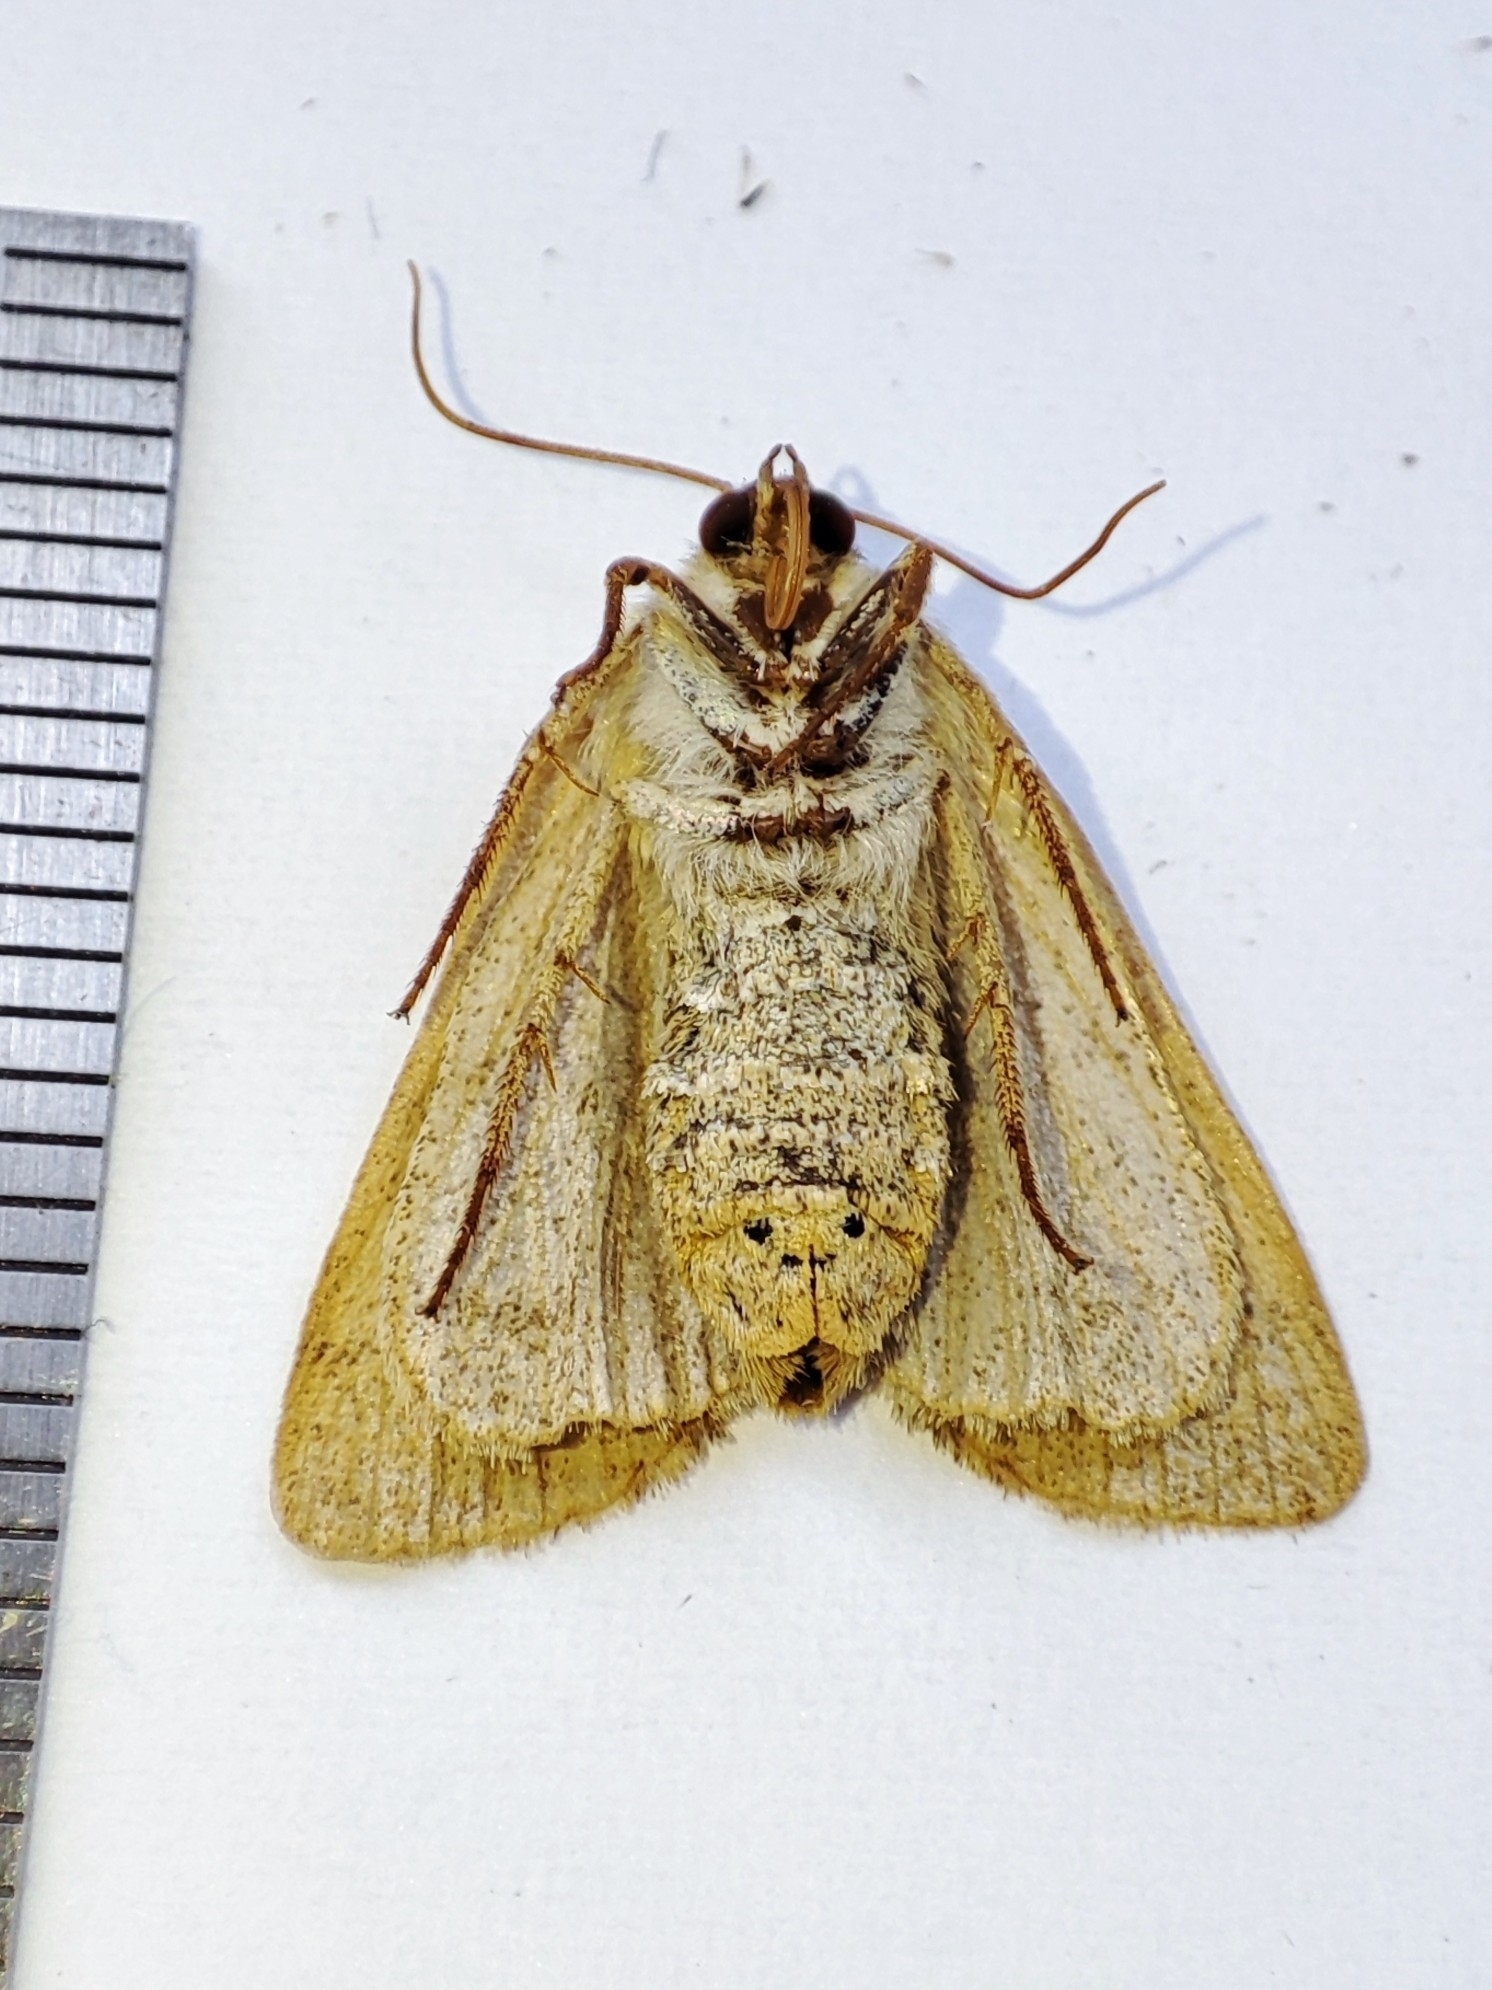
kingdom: Animalia
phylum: Arthropoda
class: Insecta
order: Lepidoptera
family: Noctuidae
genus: Charanyca
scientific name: Charanyca trigrammica
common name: Treble lines
